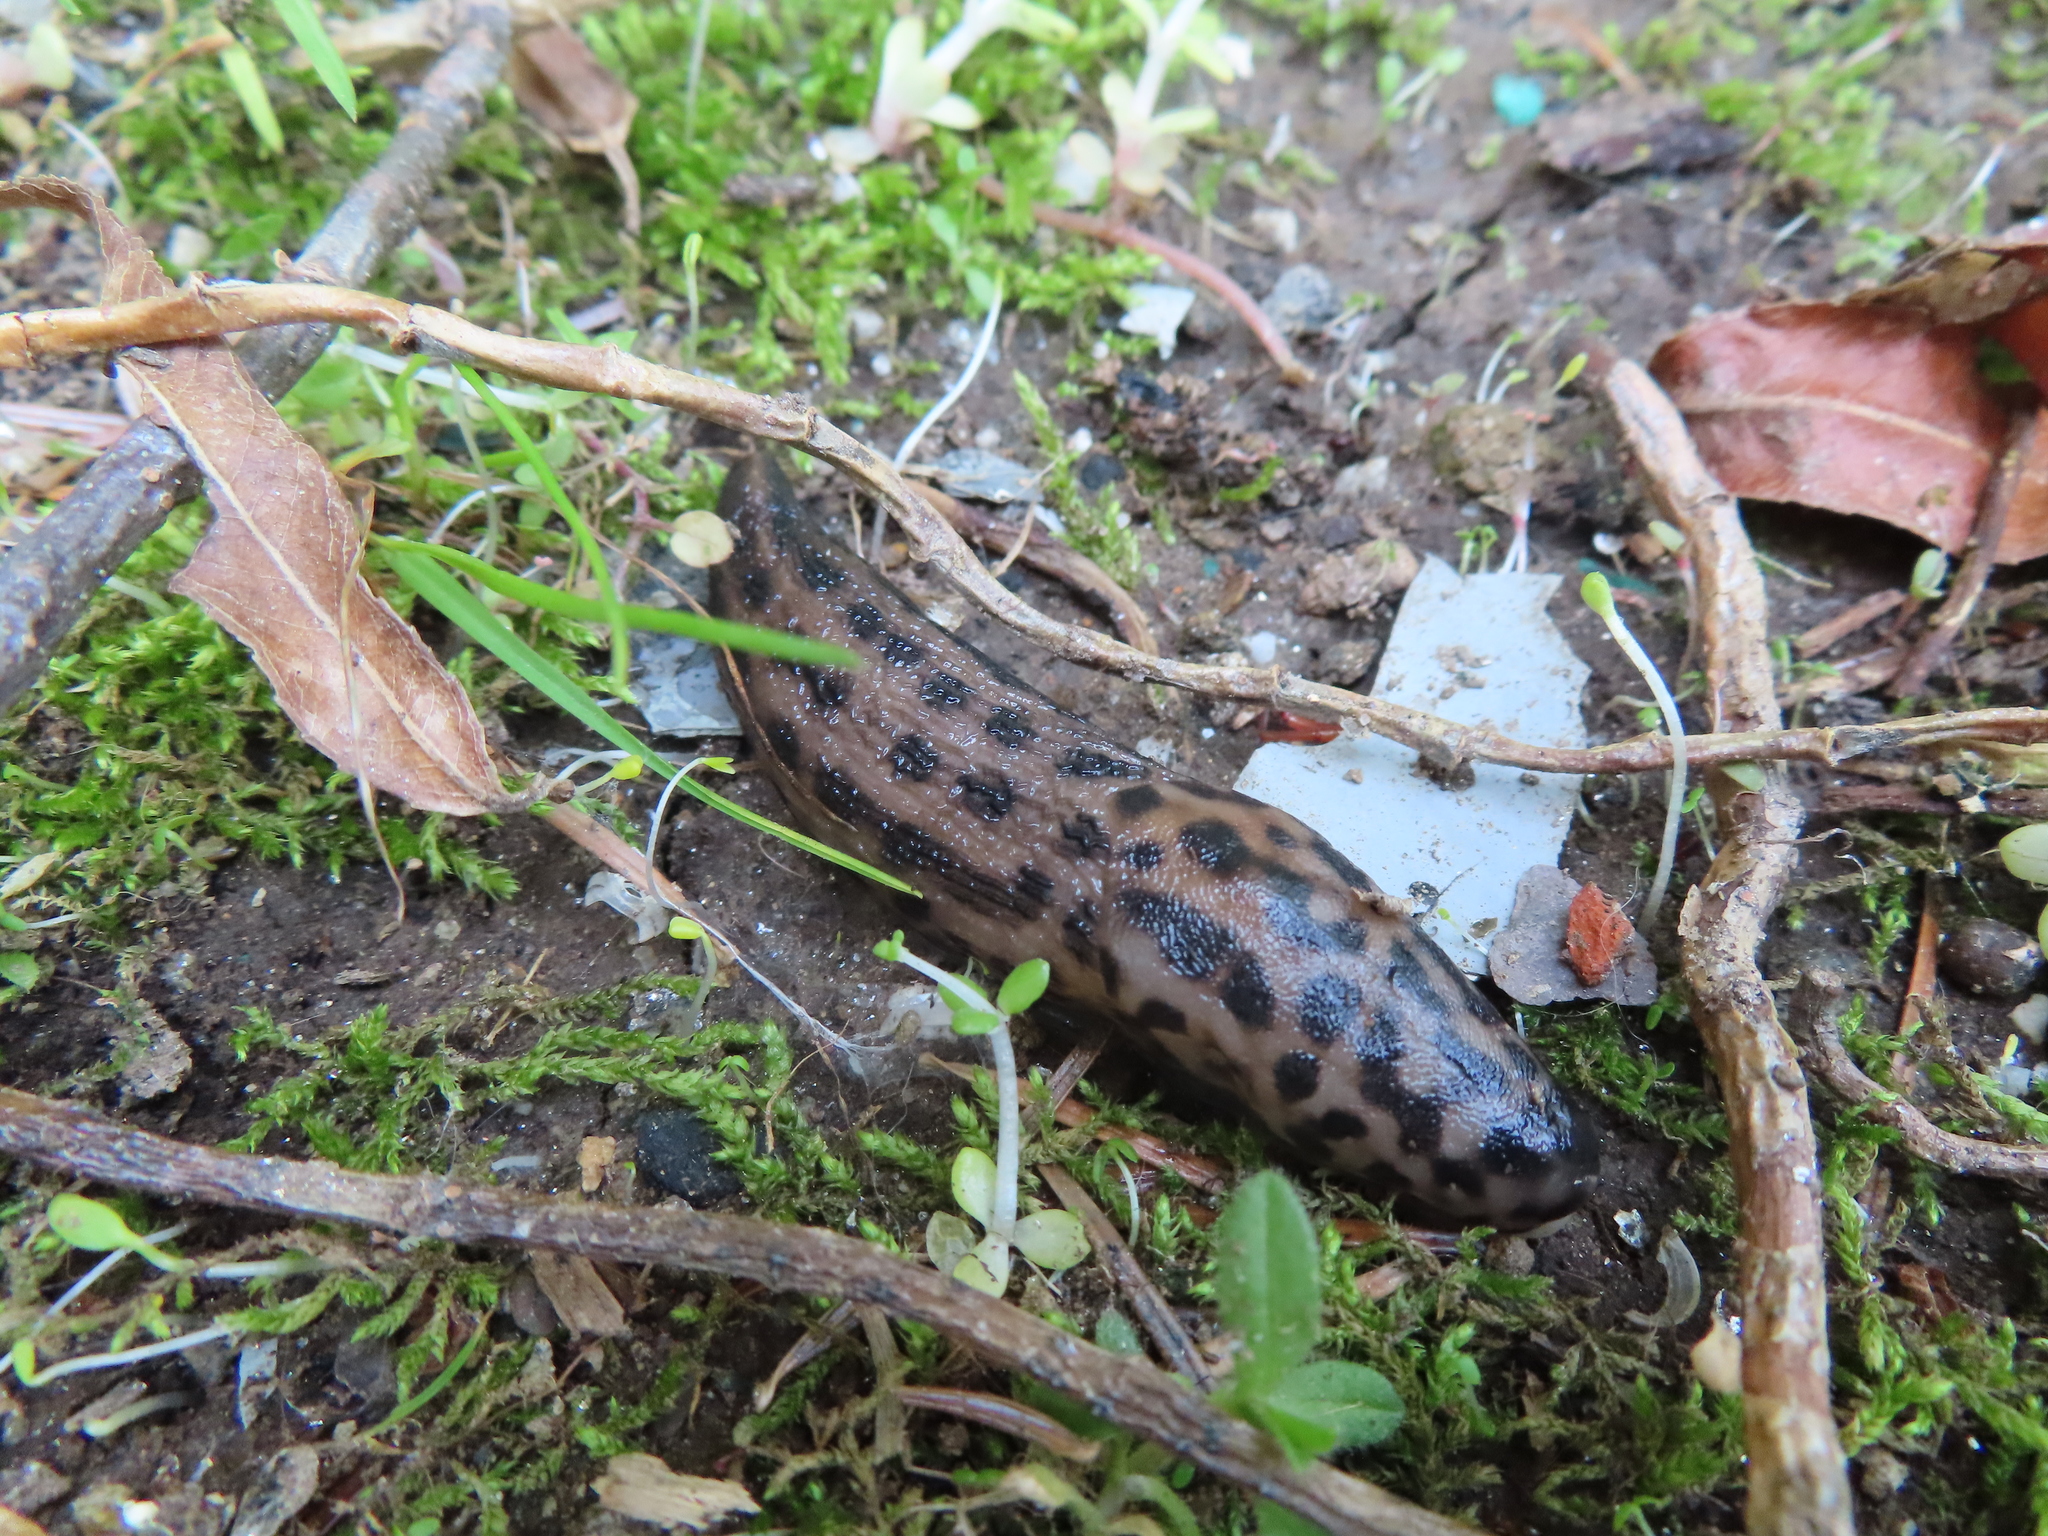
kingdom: Animalia
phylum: Mollusca
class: Gastropoda
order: Stylommatophora
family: Limacidae
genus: Limax
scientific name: Limax maximus
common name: Great grey slug
